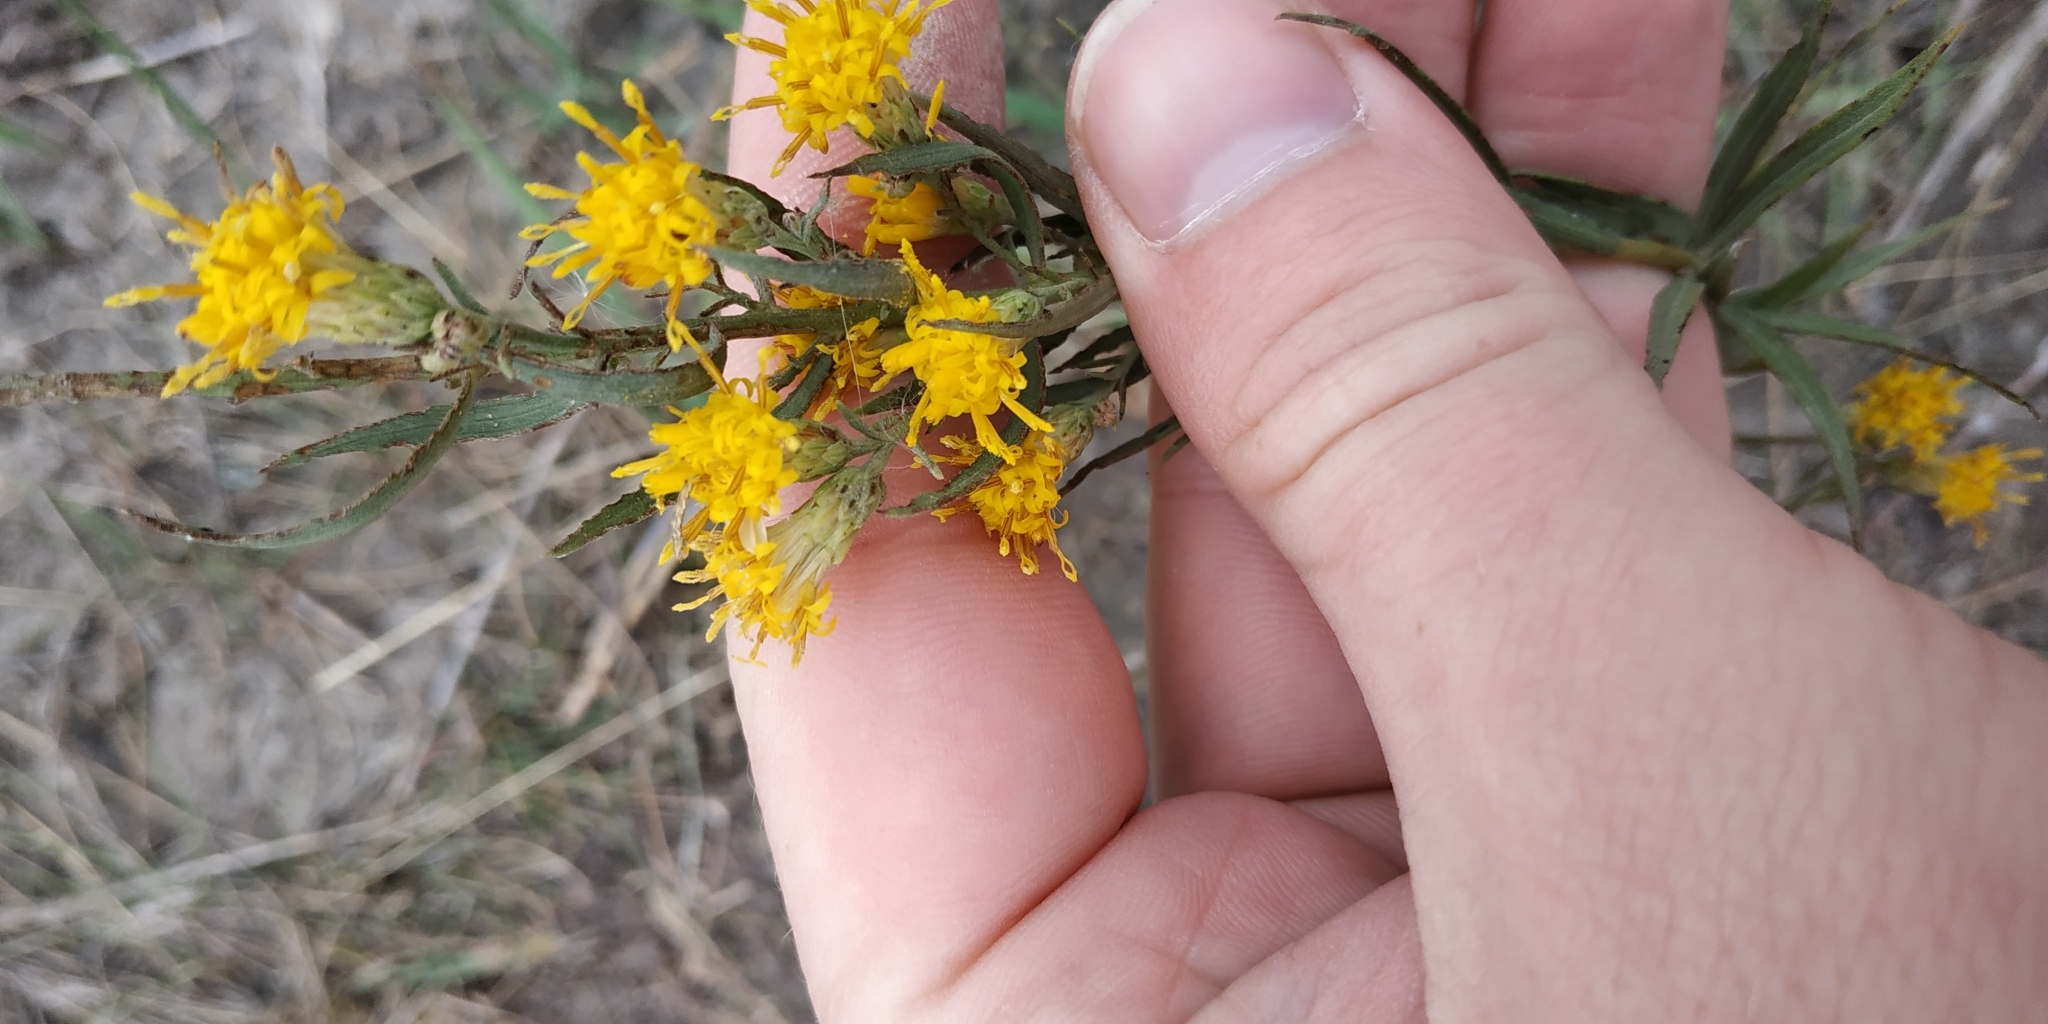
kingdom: Plantae
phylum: Tracheophyta
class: Magnoliopsida
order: Asterales
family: Asteraceae
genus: Galatella
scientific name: Galatella biflora
